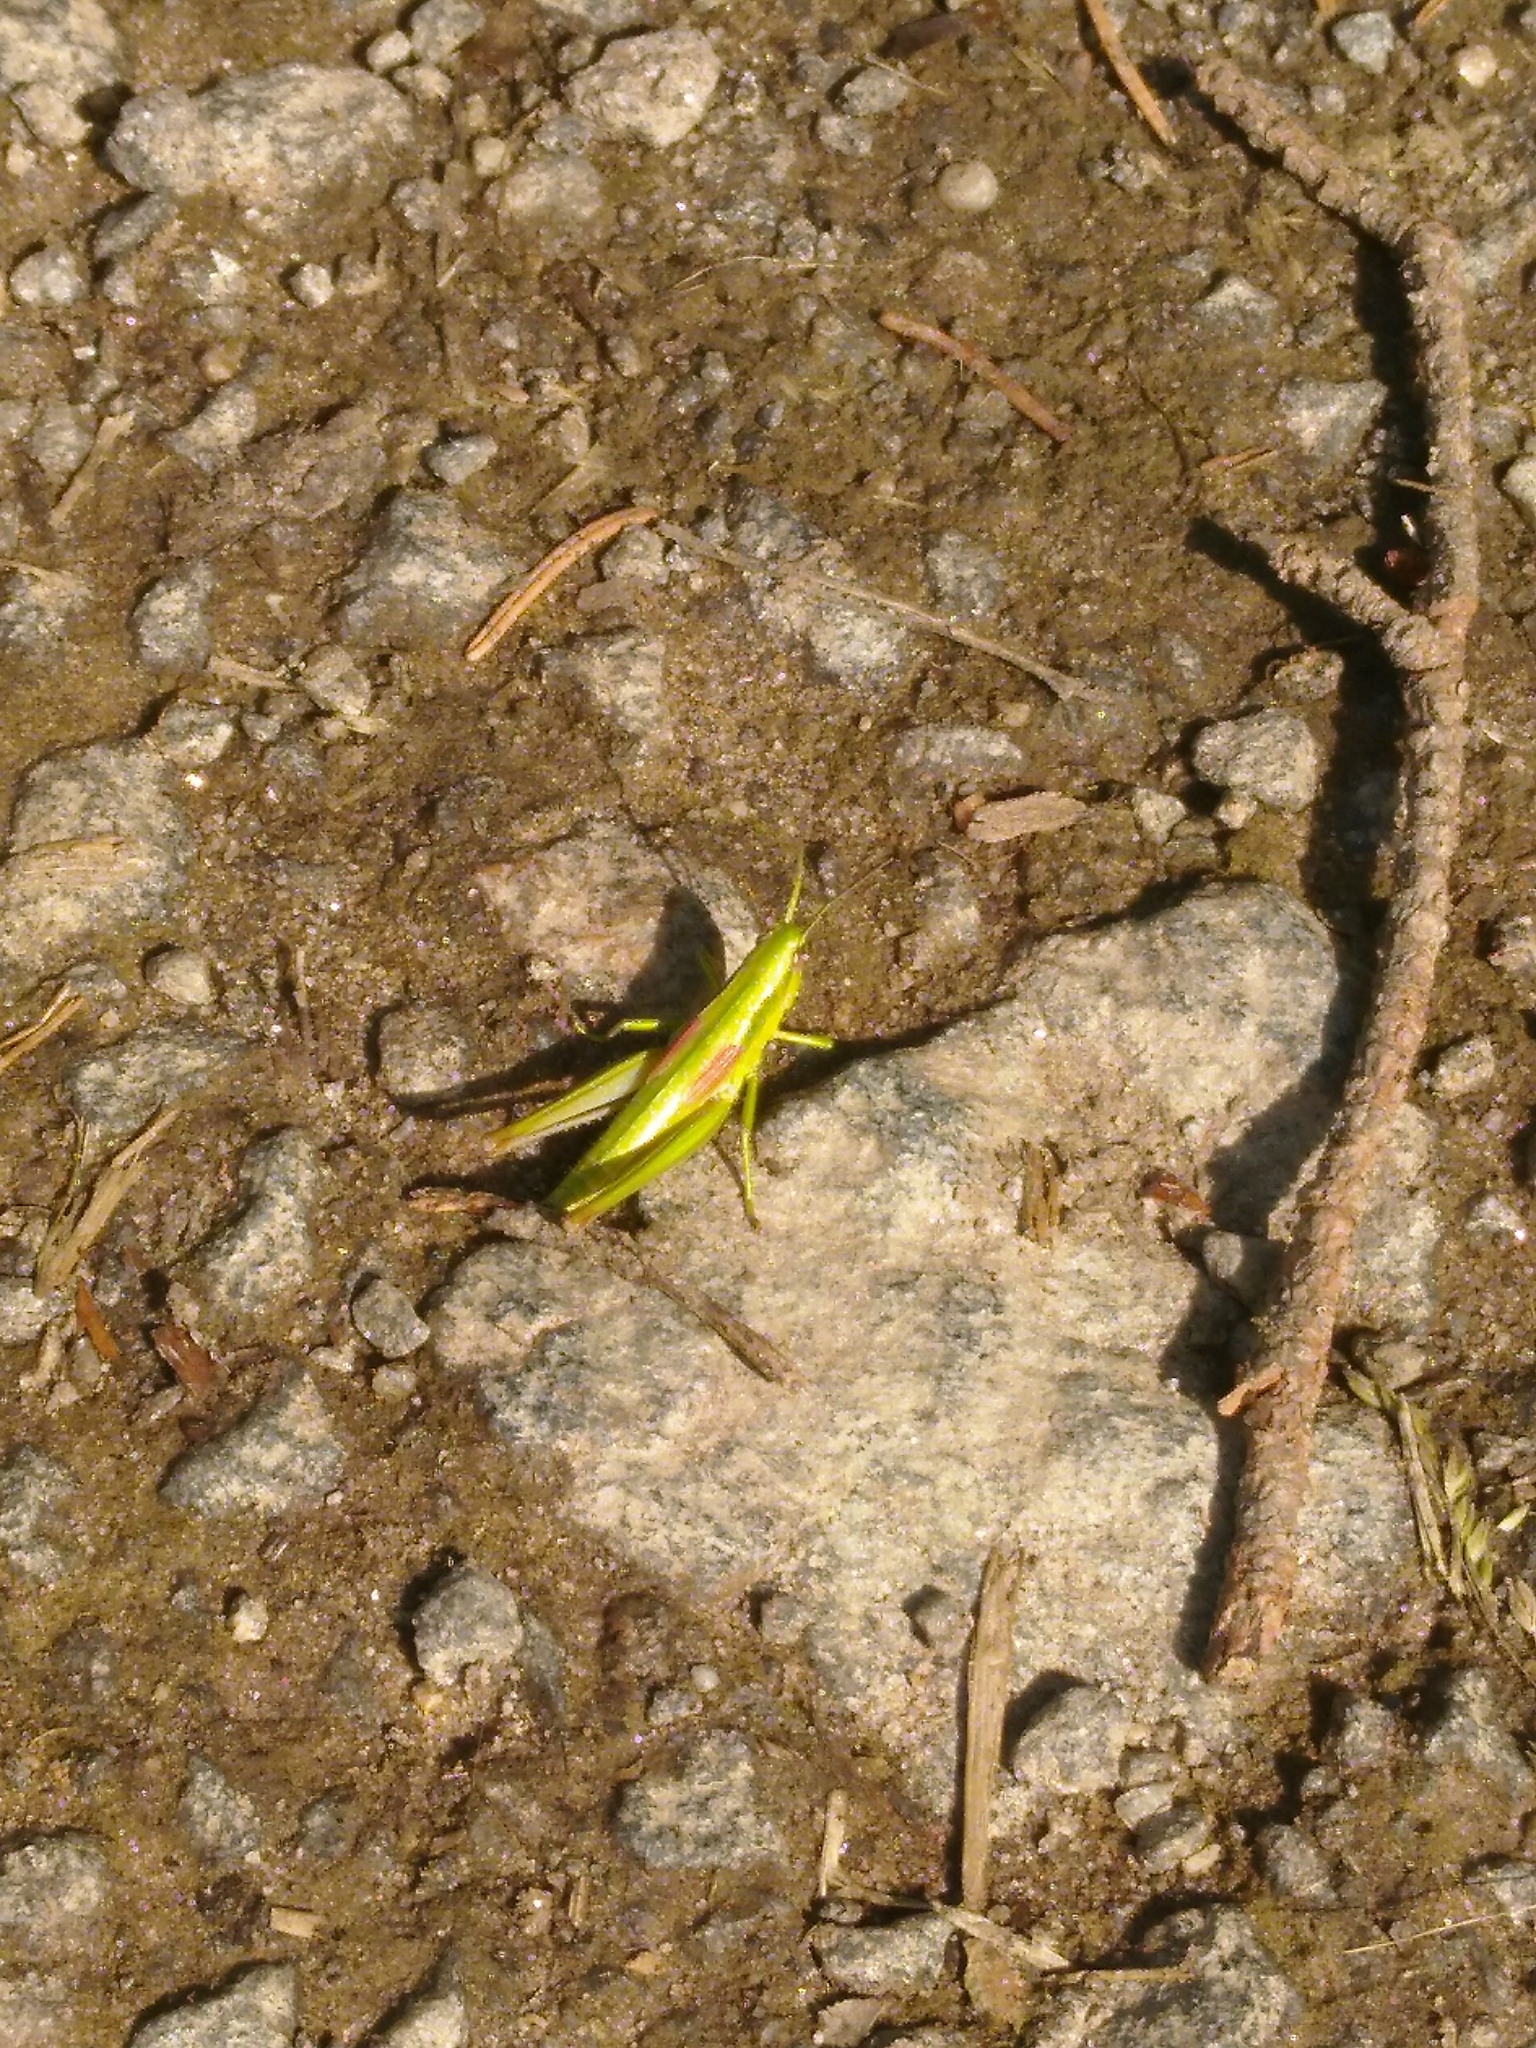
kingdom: Animalia
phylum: Arthropoda
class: Insecta
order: Orthoptera
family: Acrididae
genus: Euthystira
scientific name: Euthystira brachyptera
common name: Small gold grasshopper
